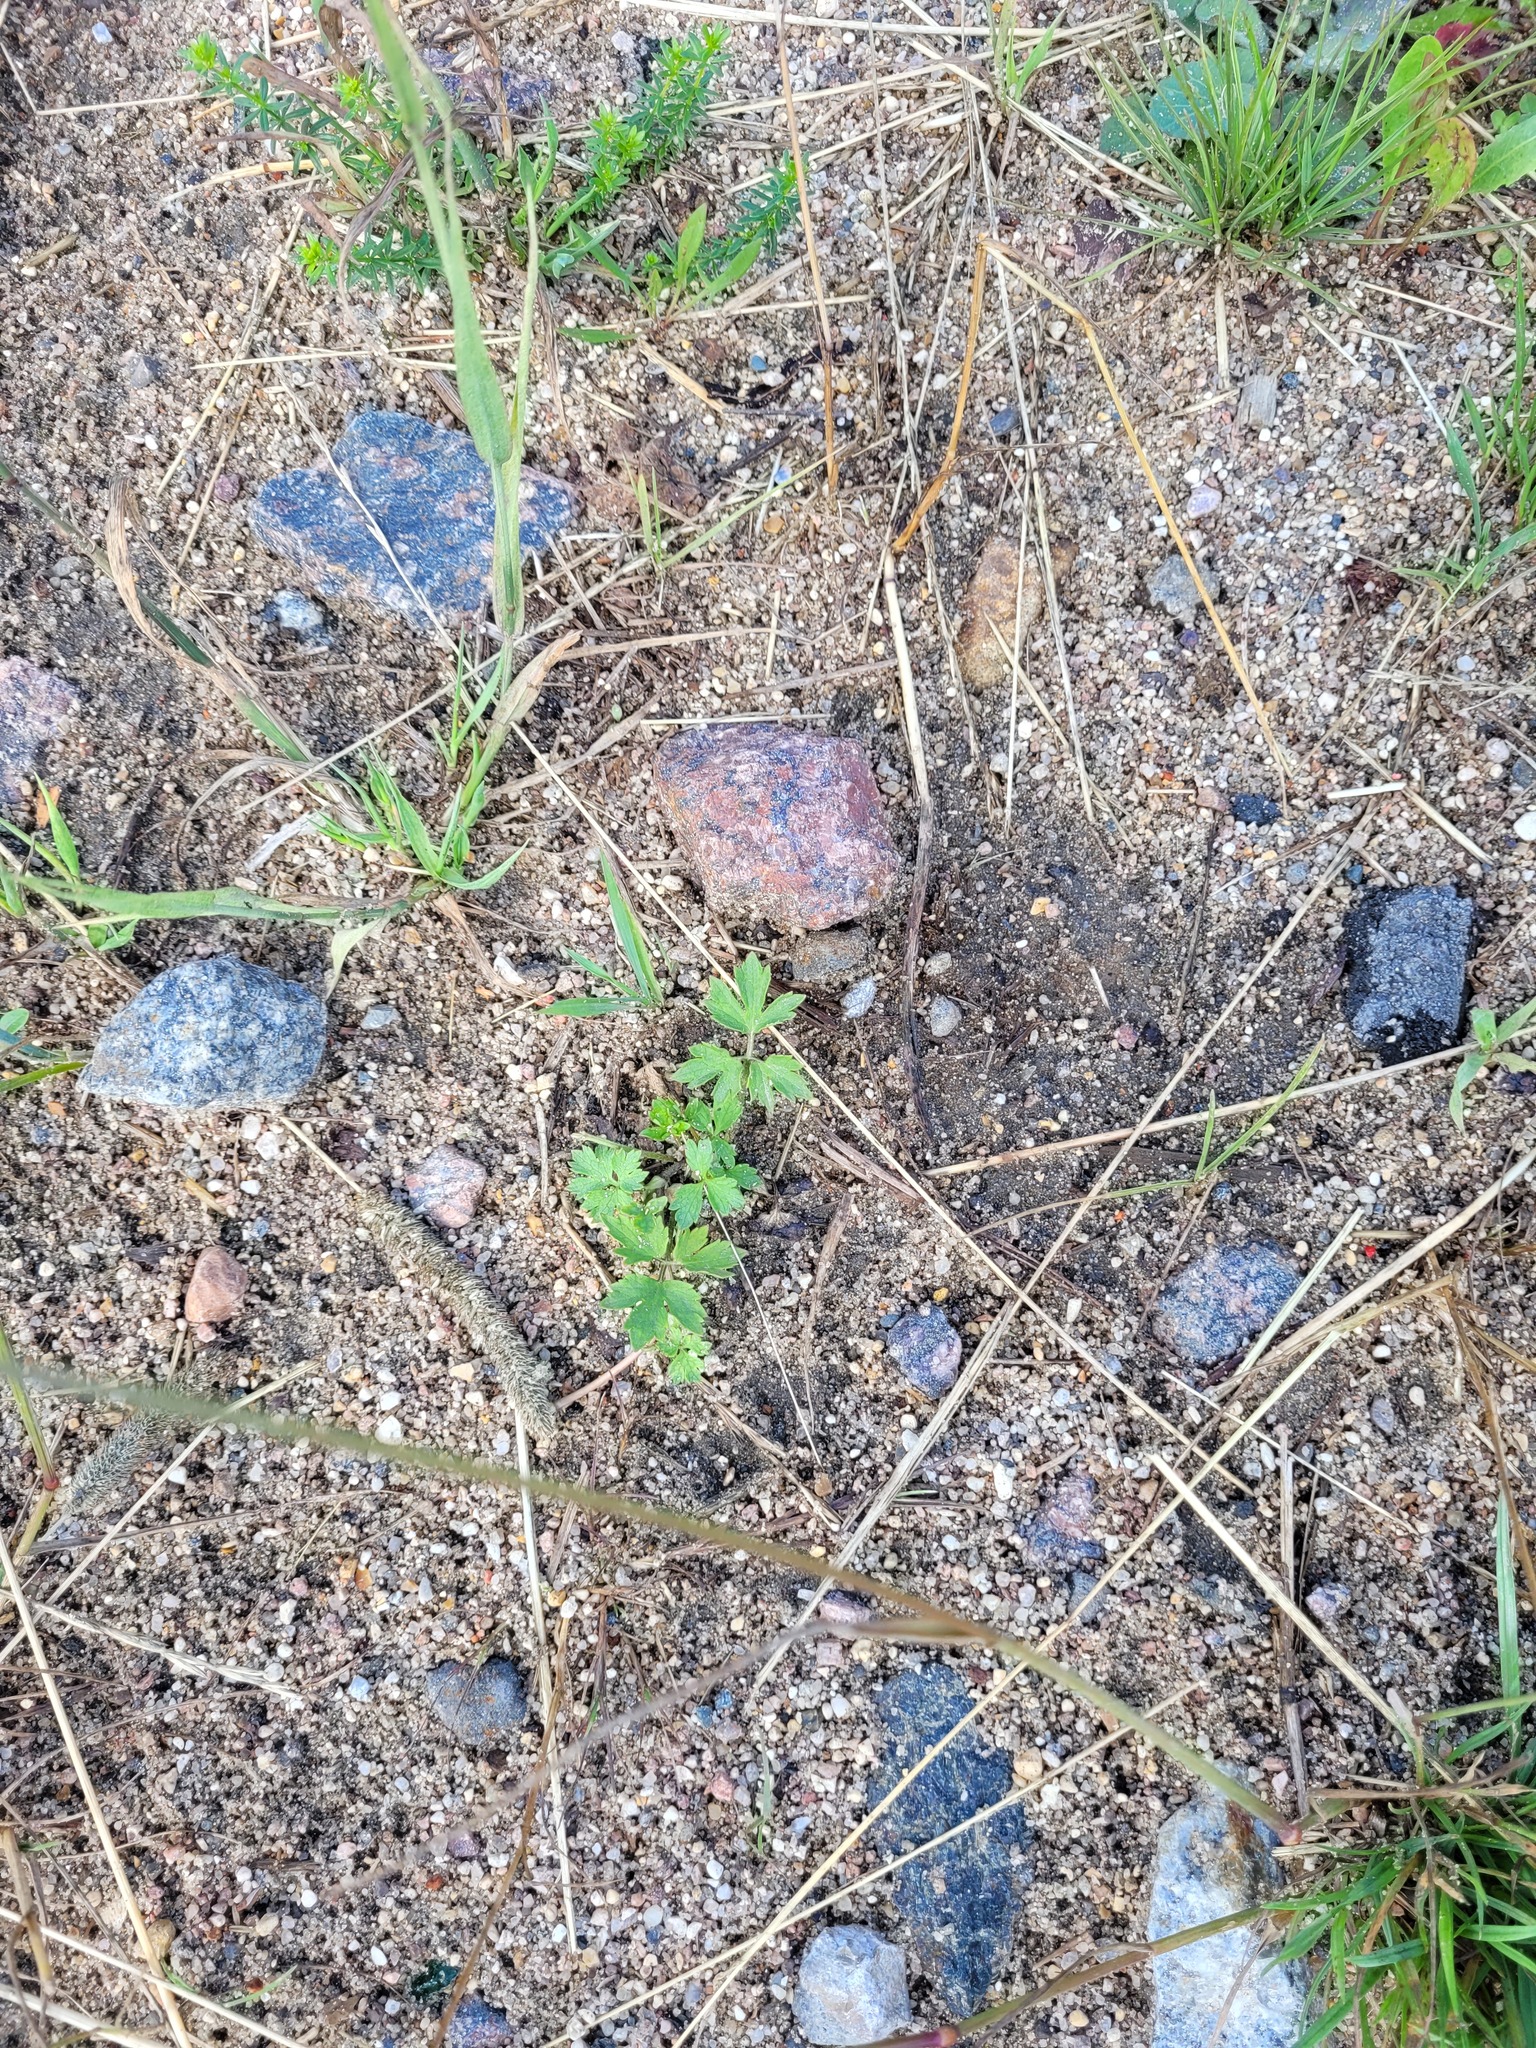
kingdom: Plantae
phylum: Tracheophyta
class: Magnoliopsida
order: Ranunculales
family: Ranunculaceae
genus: Ranunculus
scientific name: Ranunculus repens
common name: Creeping buttercup
